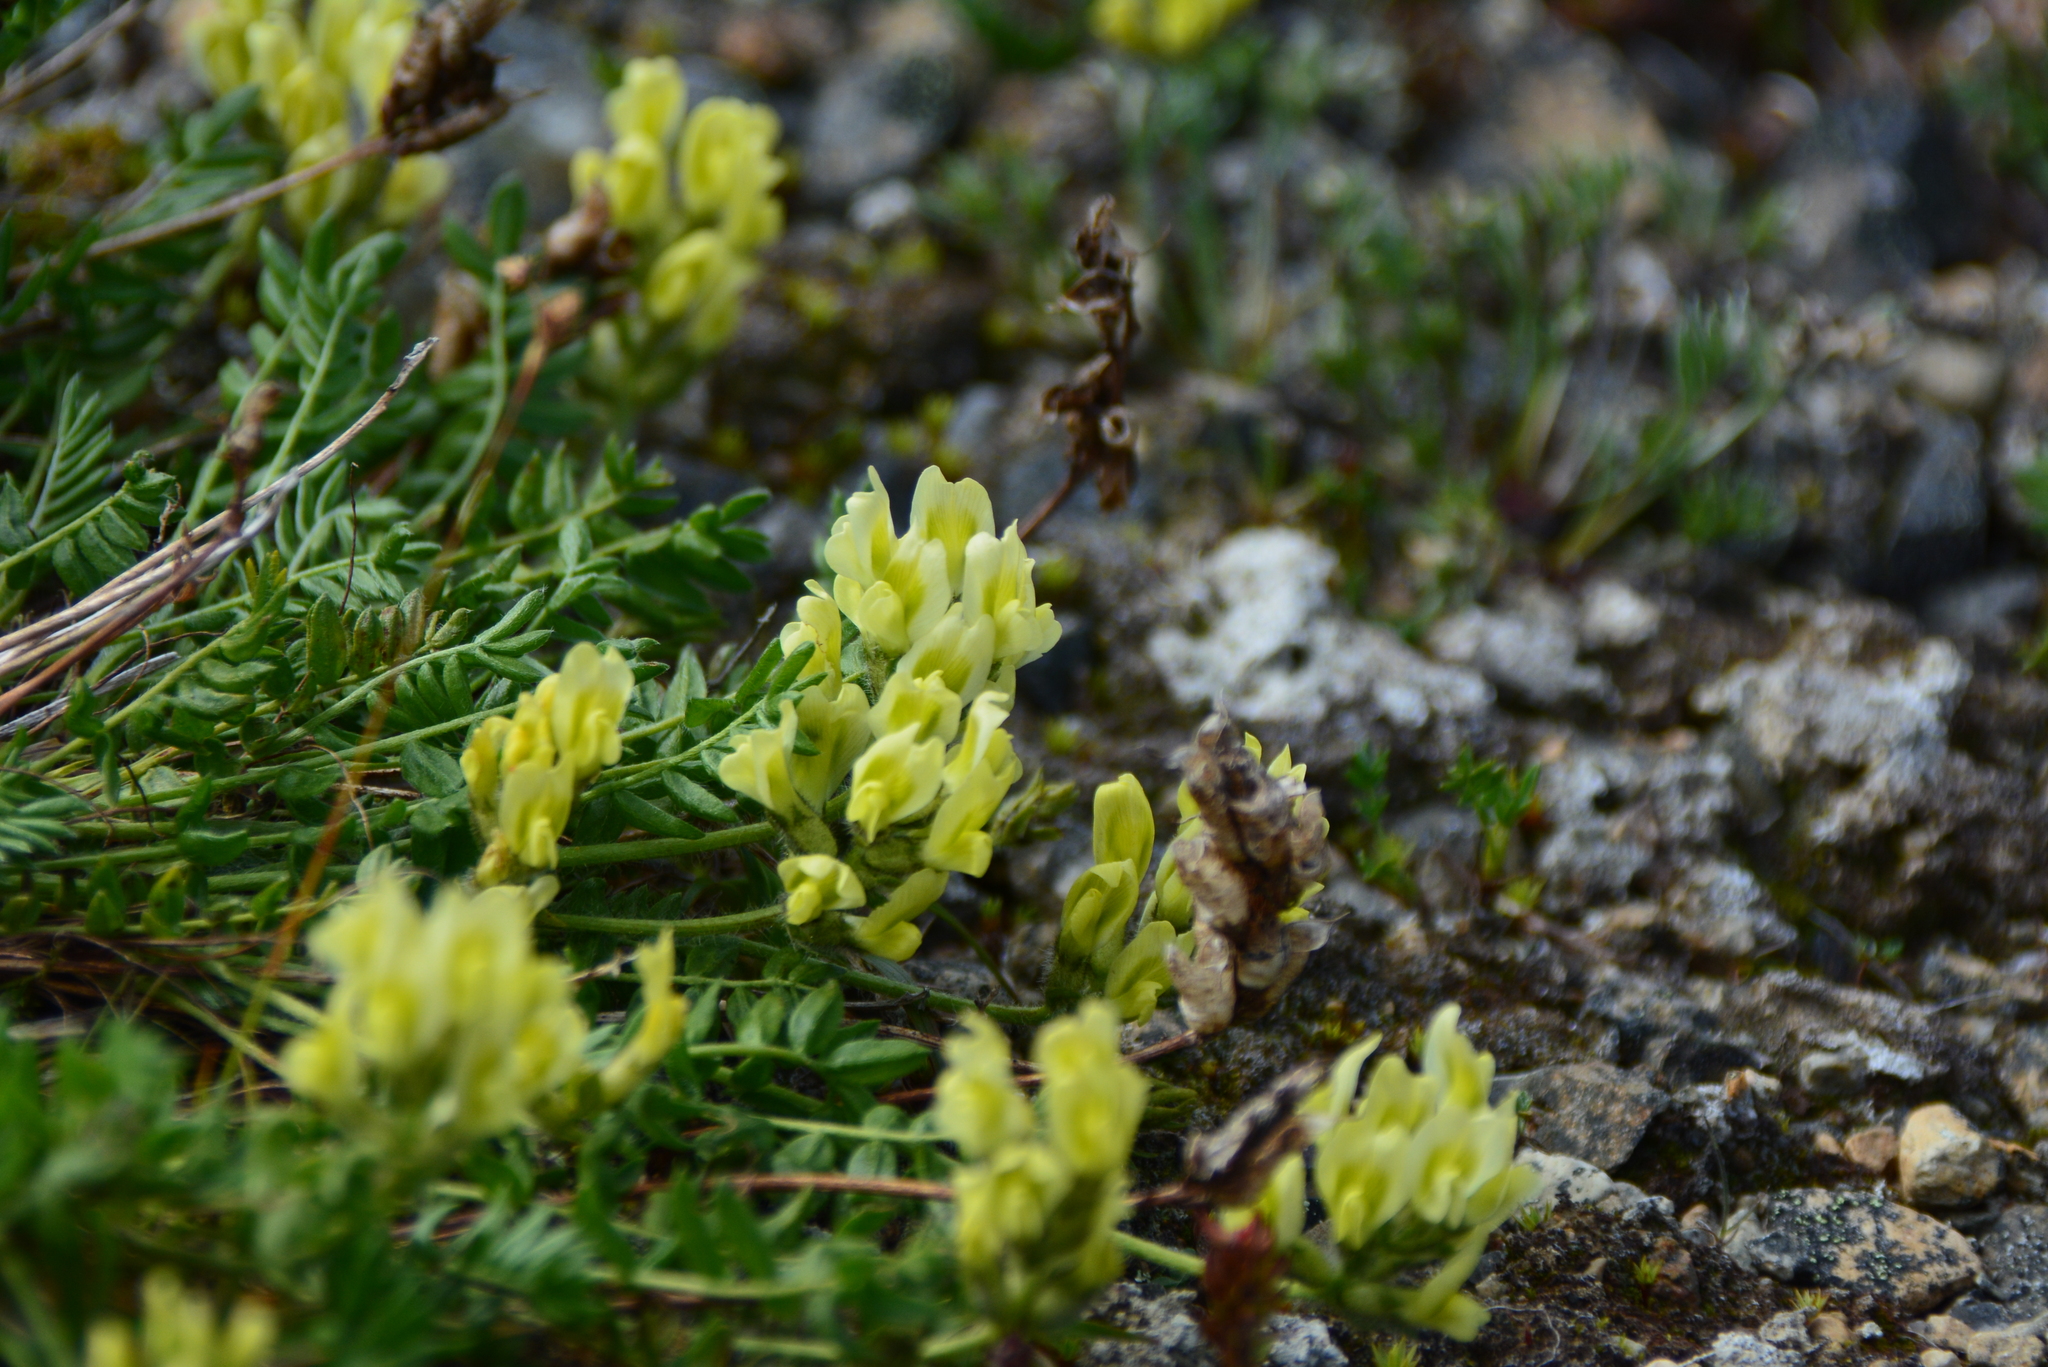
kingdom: Plantae
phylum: Tracheophyta
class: Magnoliopsida
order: Fabales
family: Fabaceae
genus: Oxytropis
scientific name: Oxytropis maydelliana
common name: Maydell's locoweed
